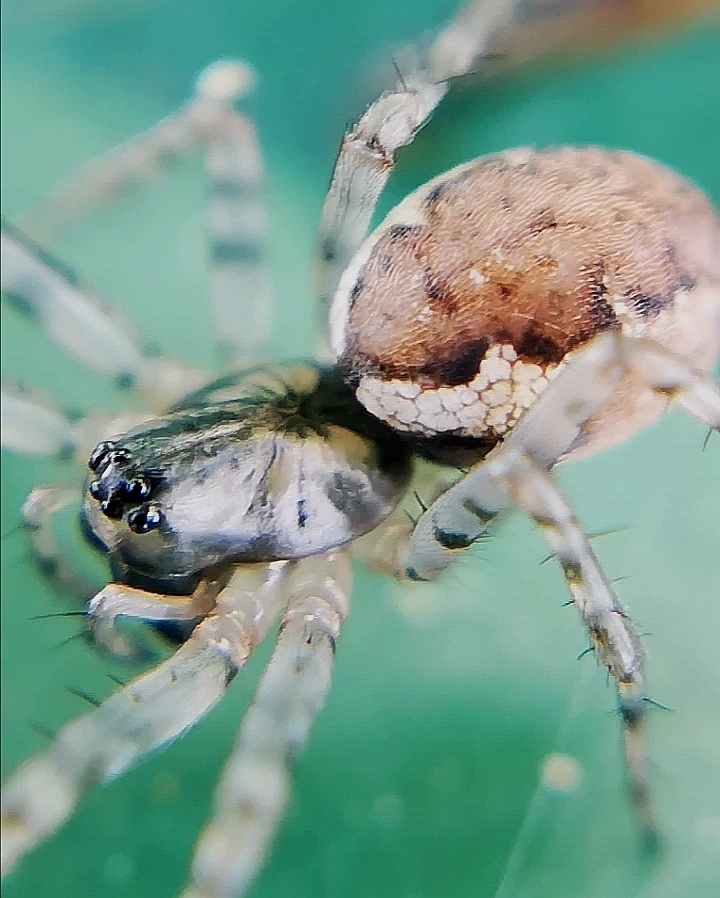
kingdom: Animalia
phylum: Arthropoda
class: Arachnida
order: Araneae
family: Linyphiidae
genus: Neriene
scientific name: Neriene montana
